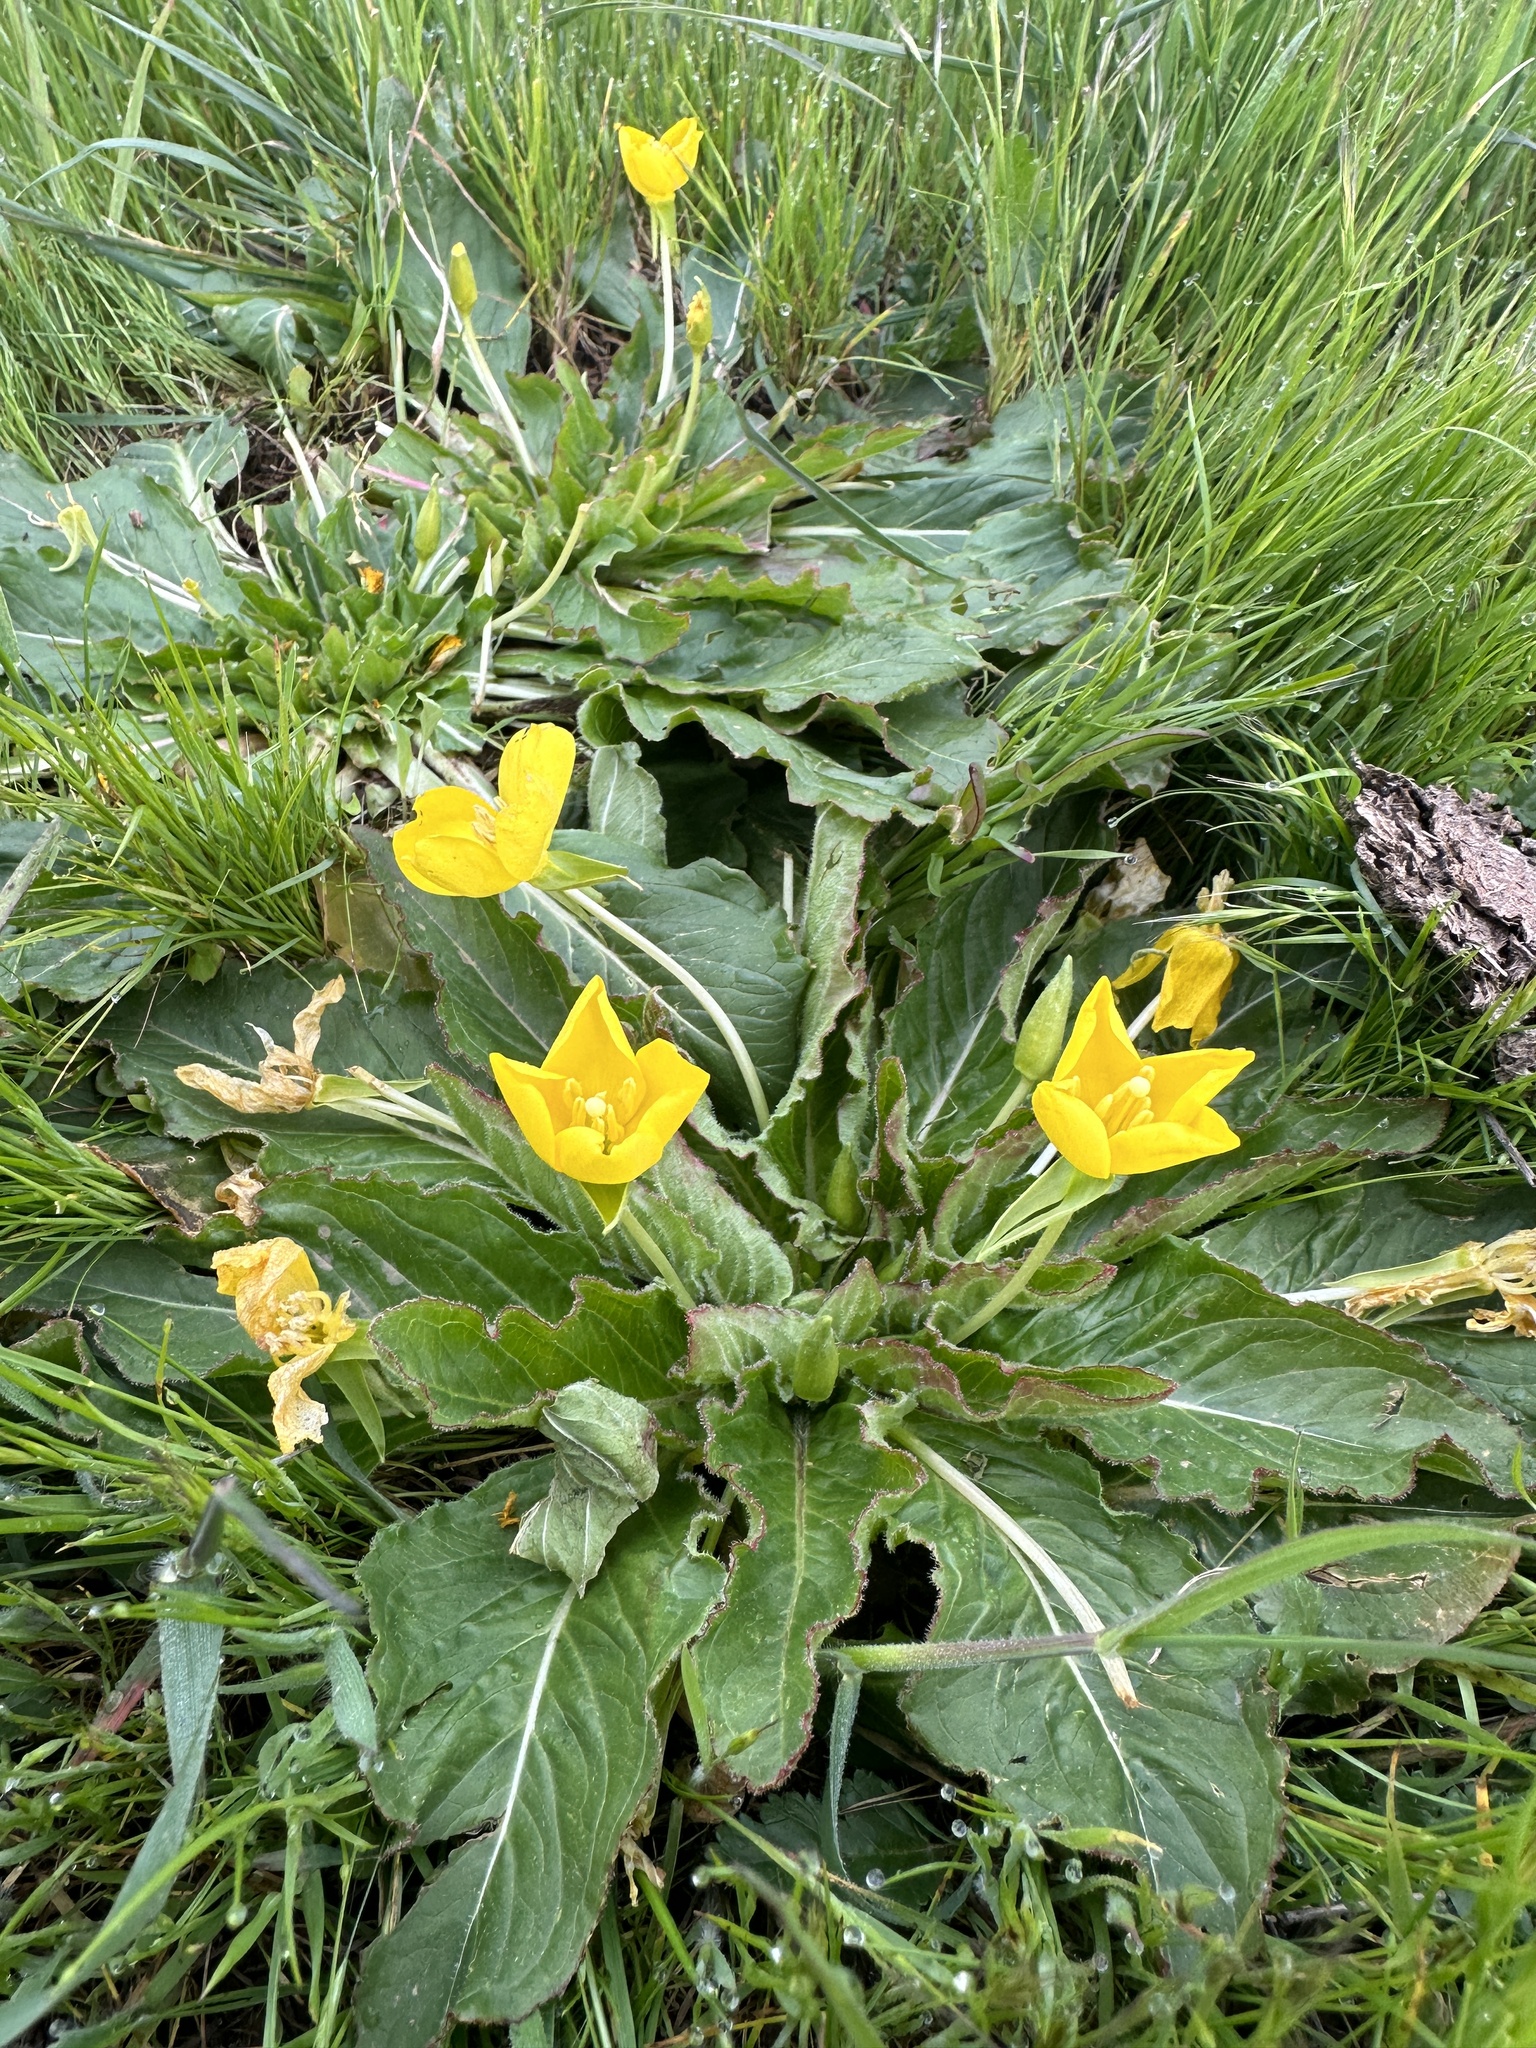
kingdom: Plantae
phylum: Tracheophyta
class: Magnoliopsida
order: Myrtales
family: Onagraceae
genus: Taraxia
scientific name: Taraxia ovata
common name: Goldeneggs
